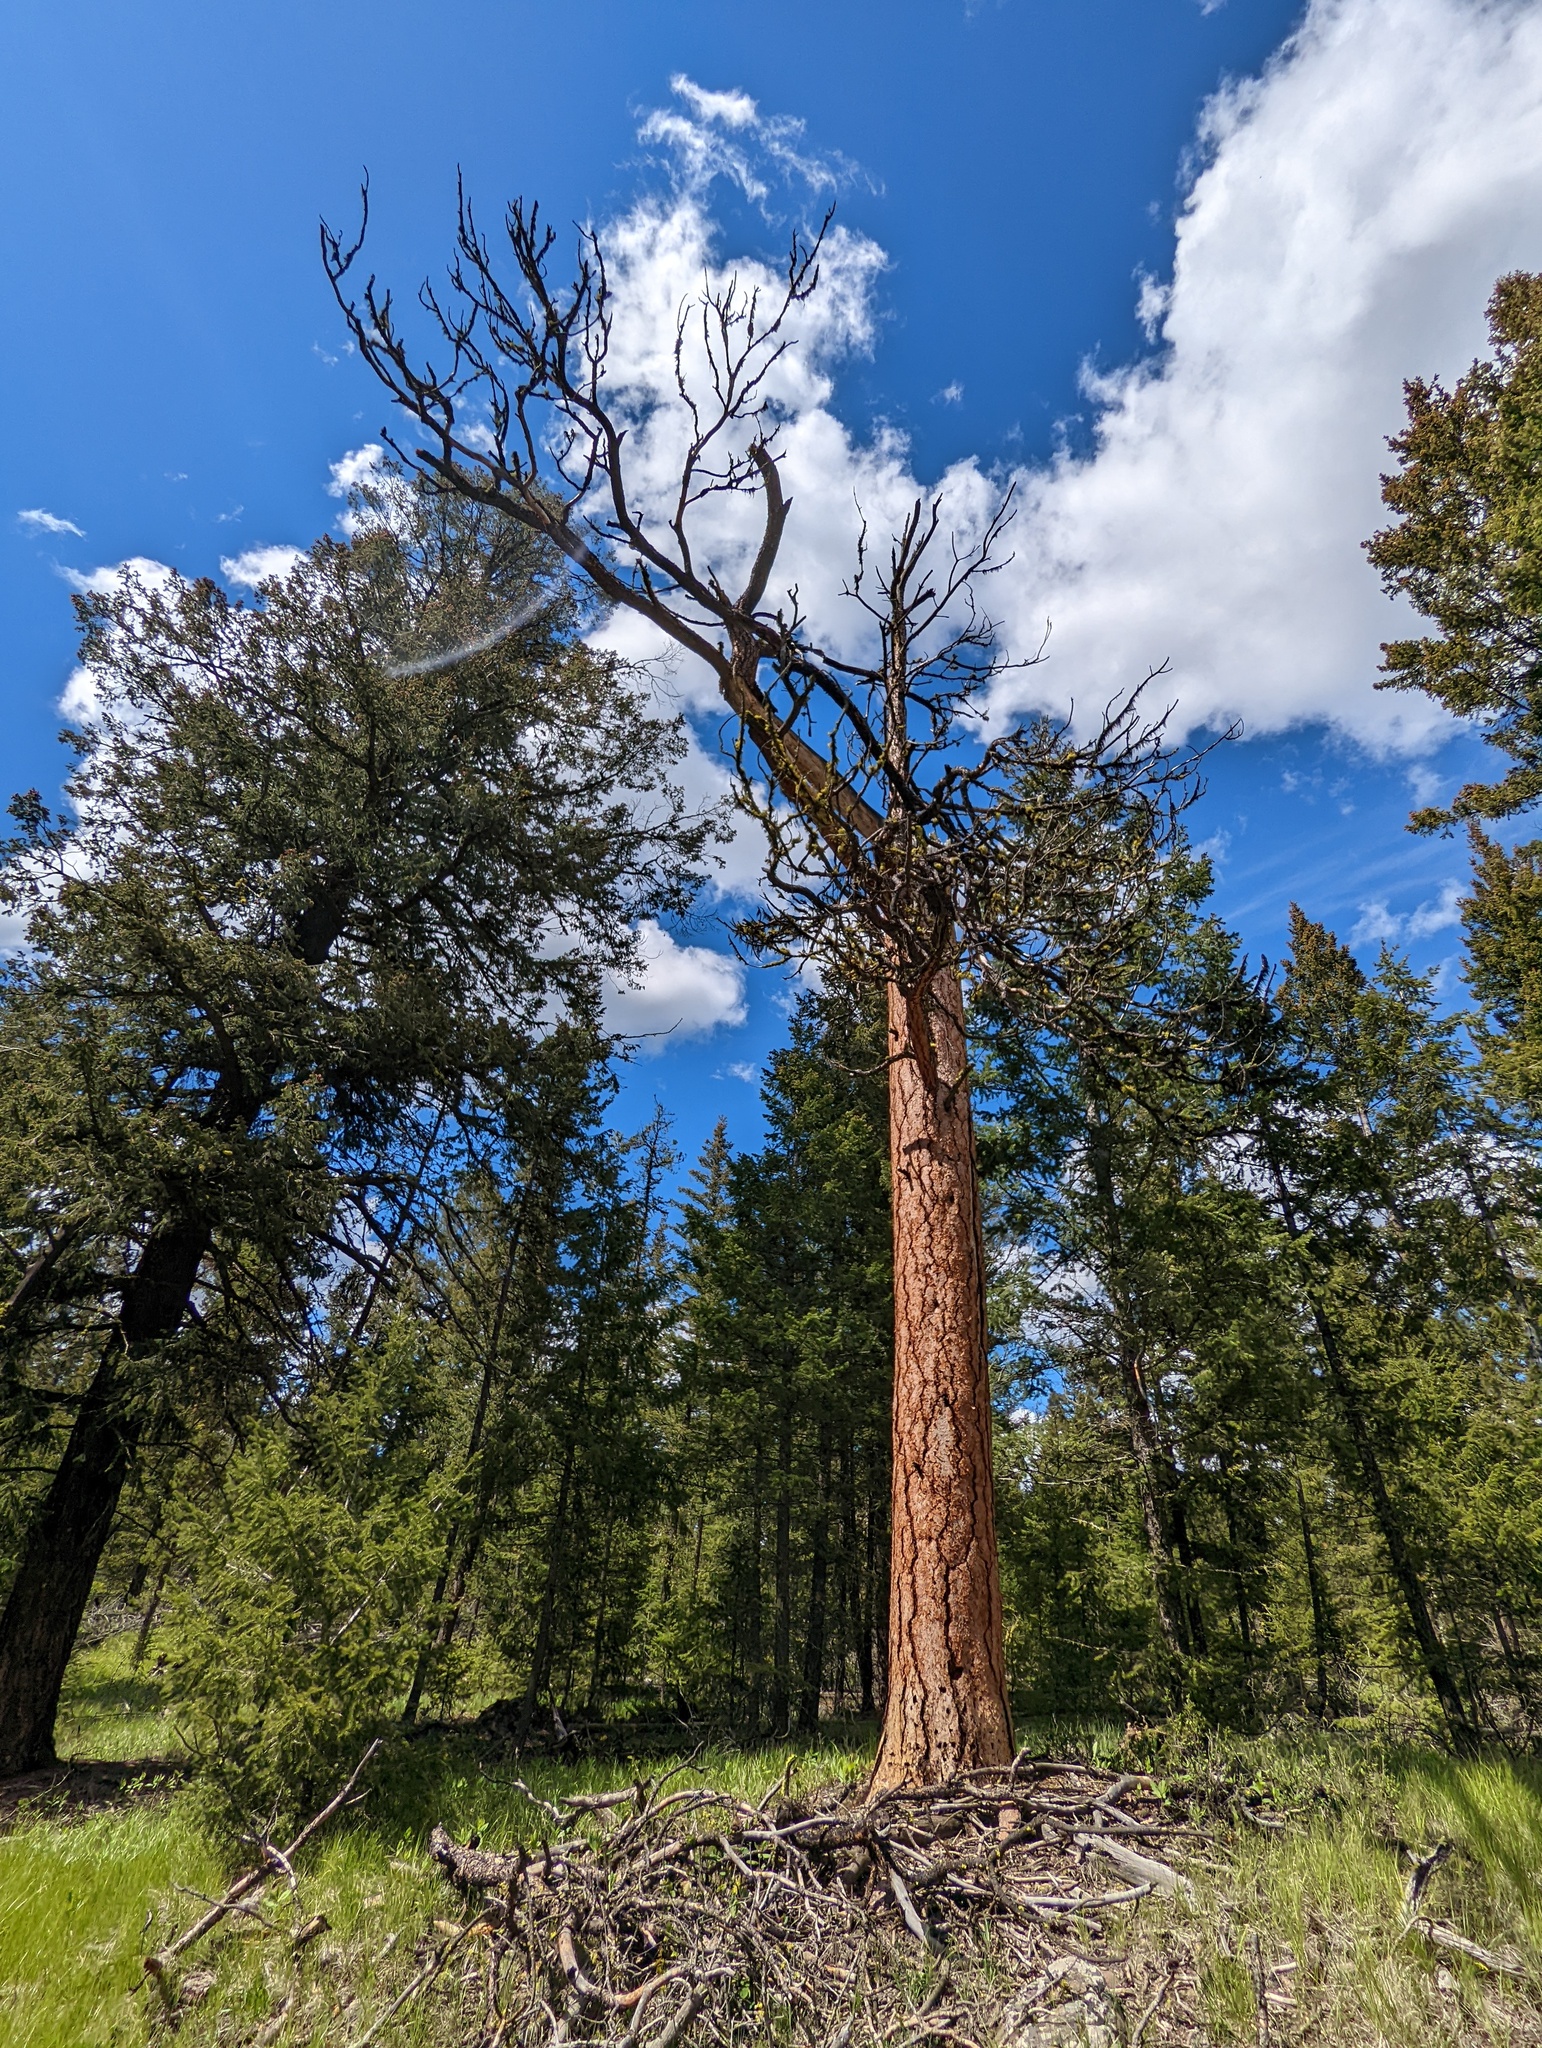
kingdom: Plantae
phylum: Tracheophyta
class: Pinopsida
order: Pinales
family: Pinaceae
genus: Pinus
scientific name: Pinus ponderosa
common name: Western yellow-pine
